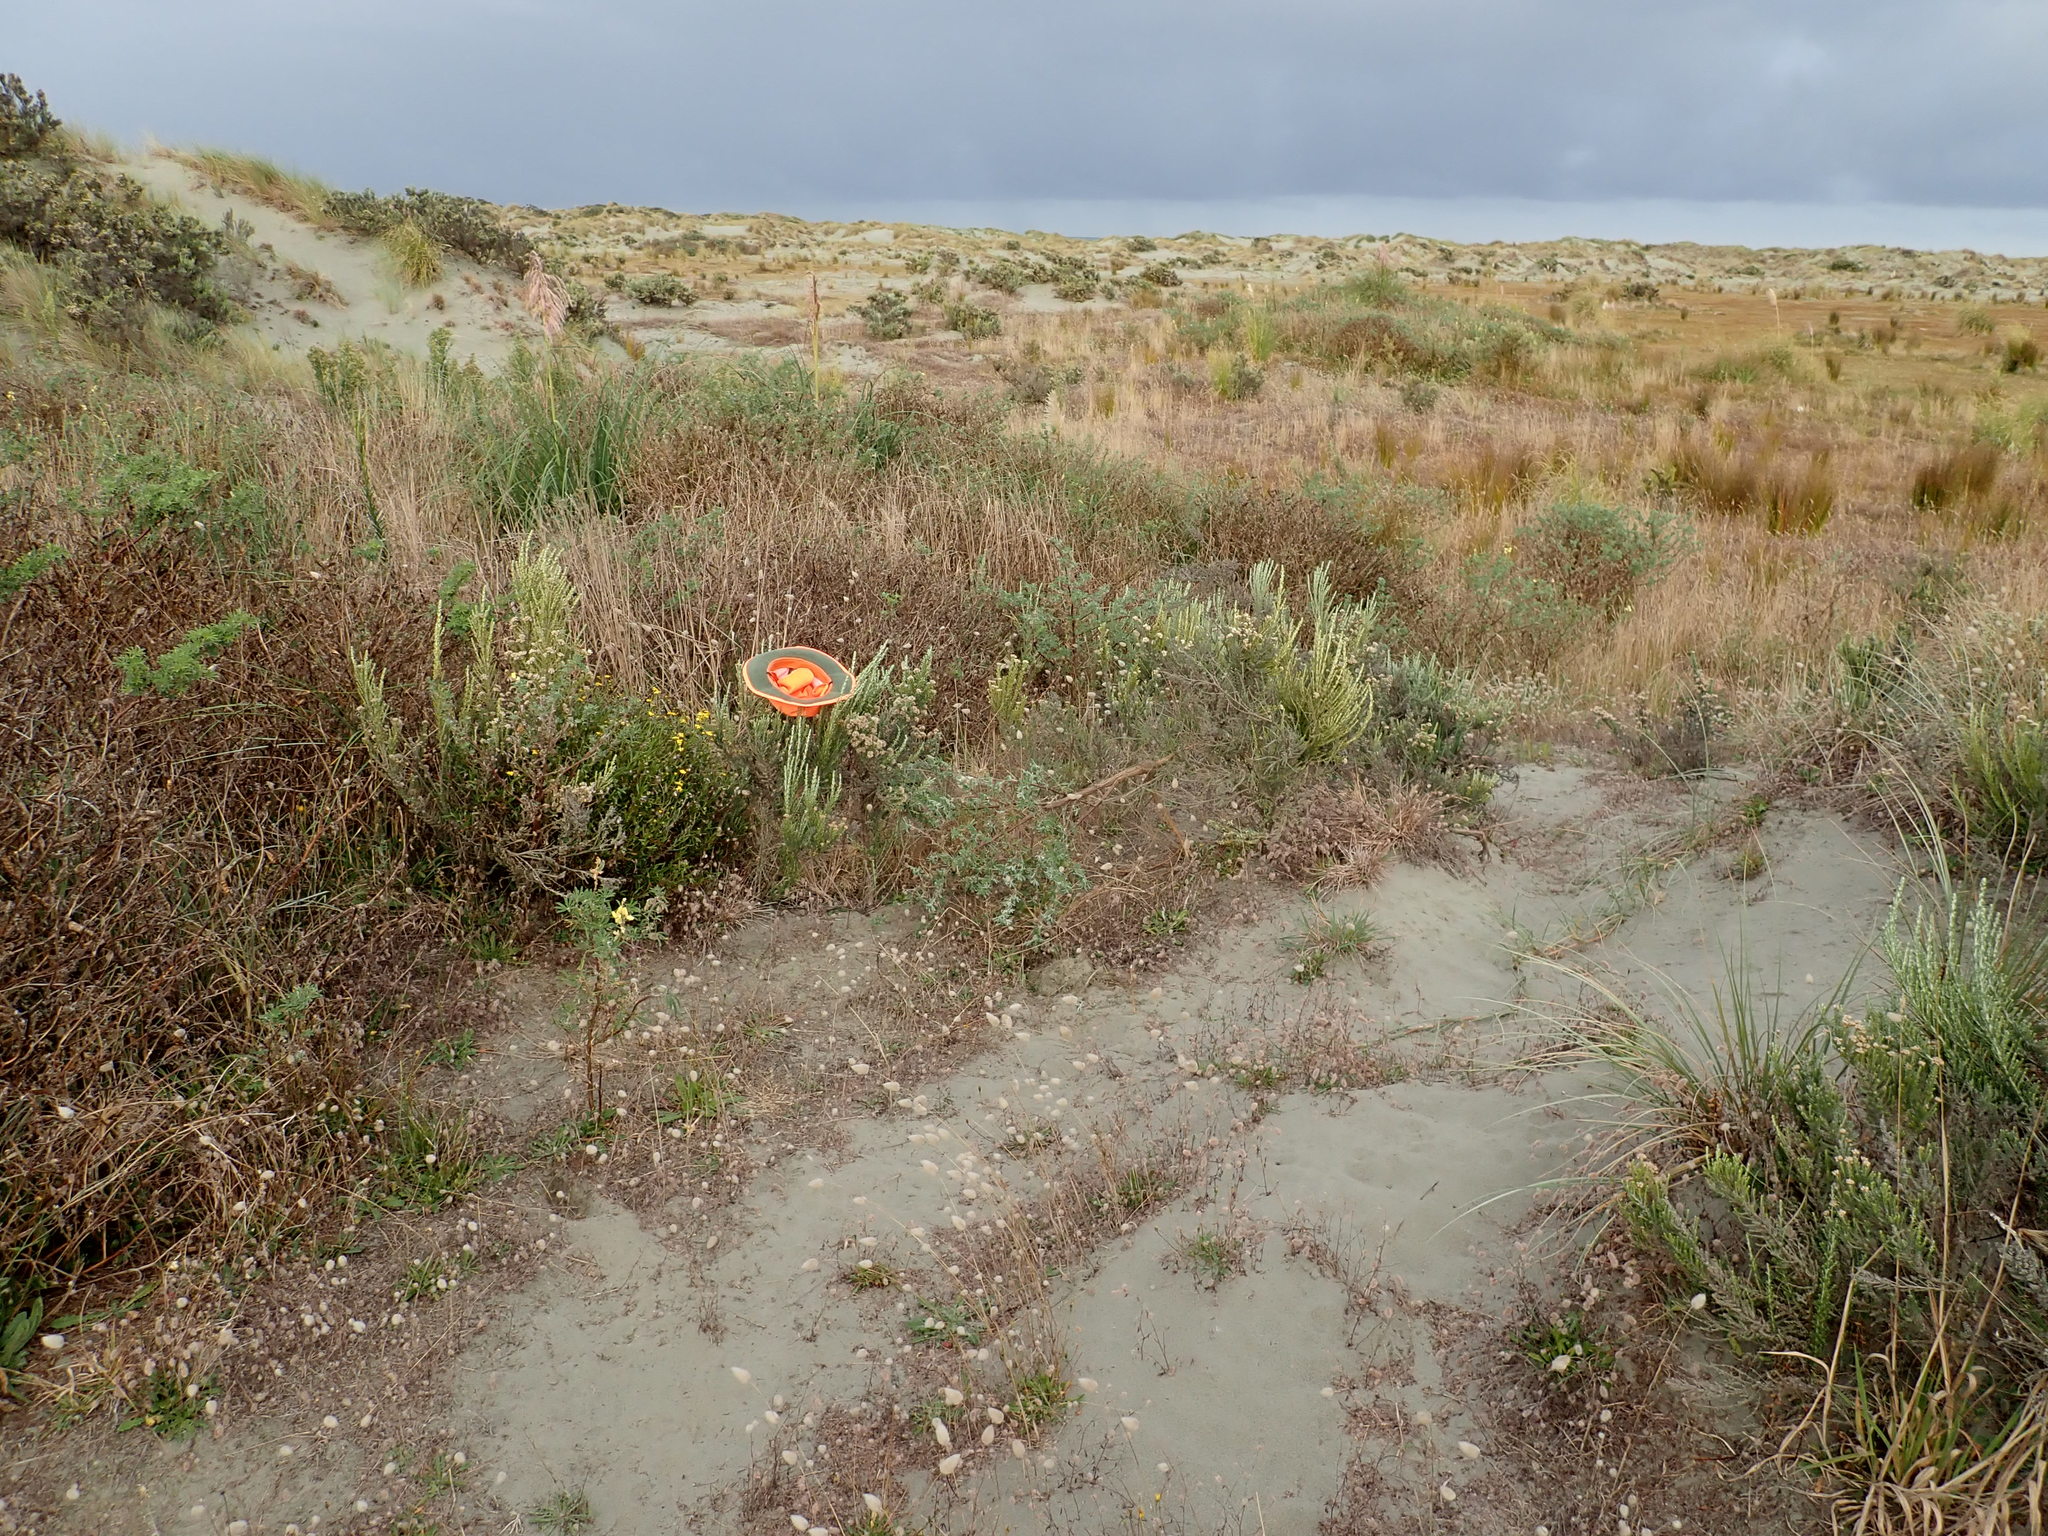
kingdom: Plantae
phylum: Tracheophyta
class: Magnoliopsida
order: Asterales
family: Asteraceae
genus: Senecio
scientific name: Senecio skirrhodon
